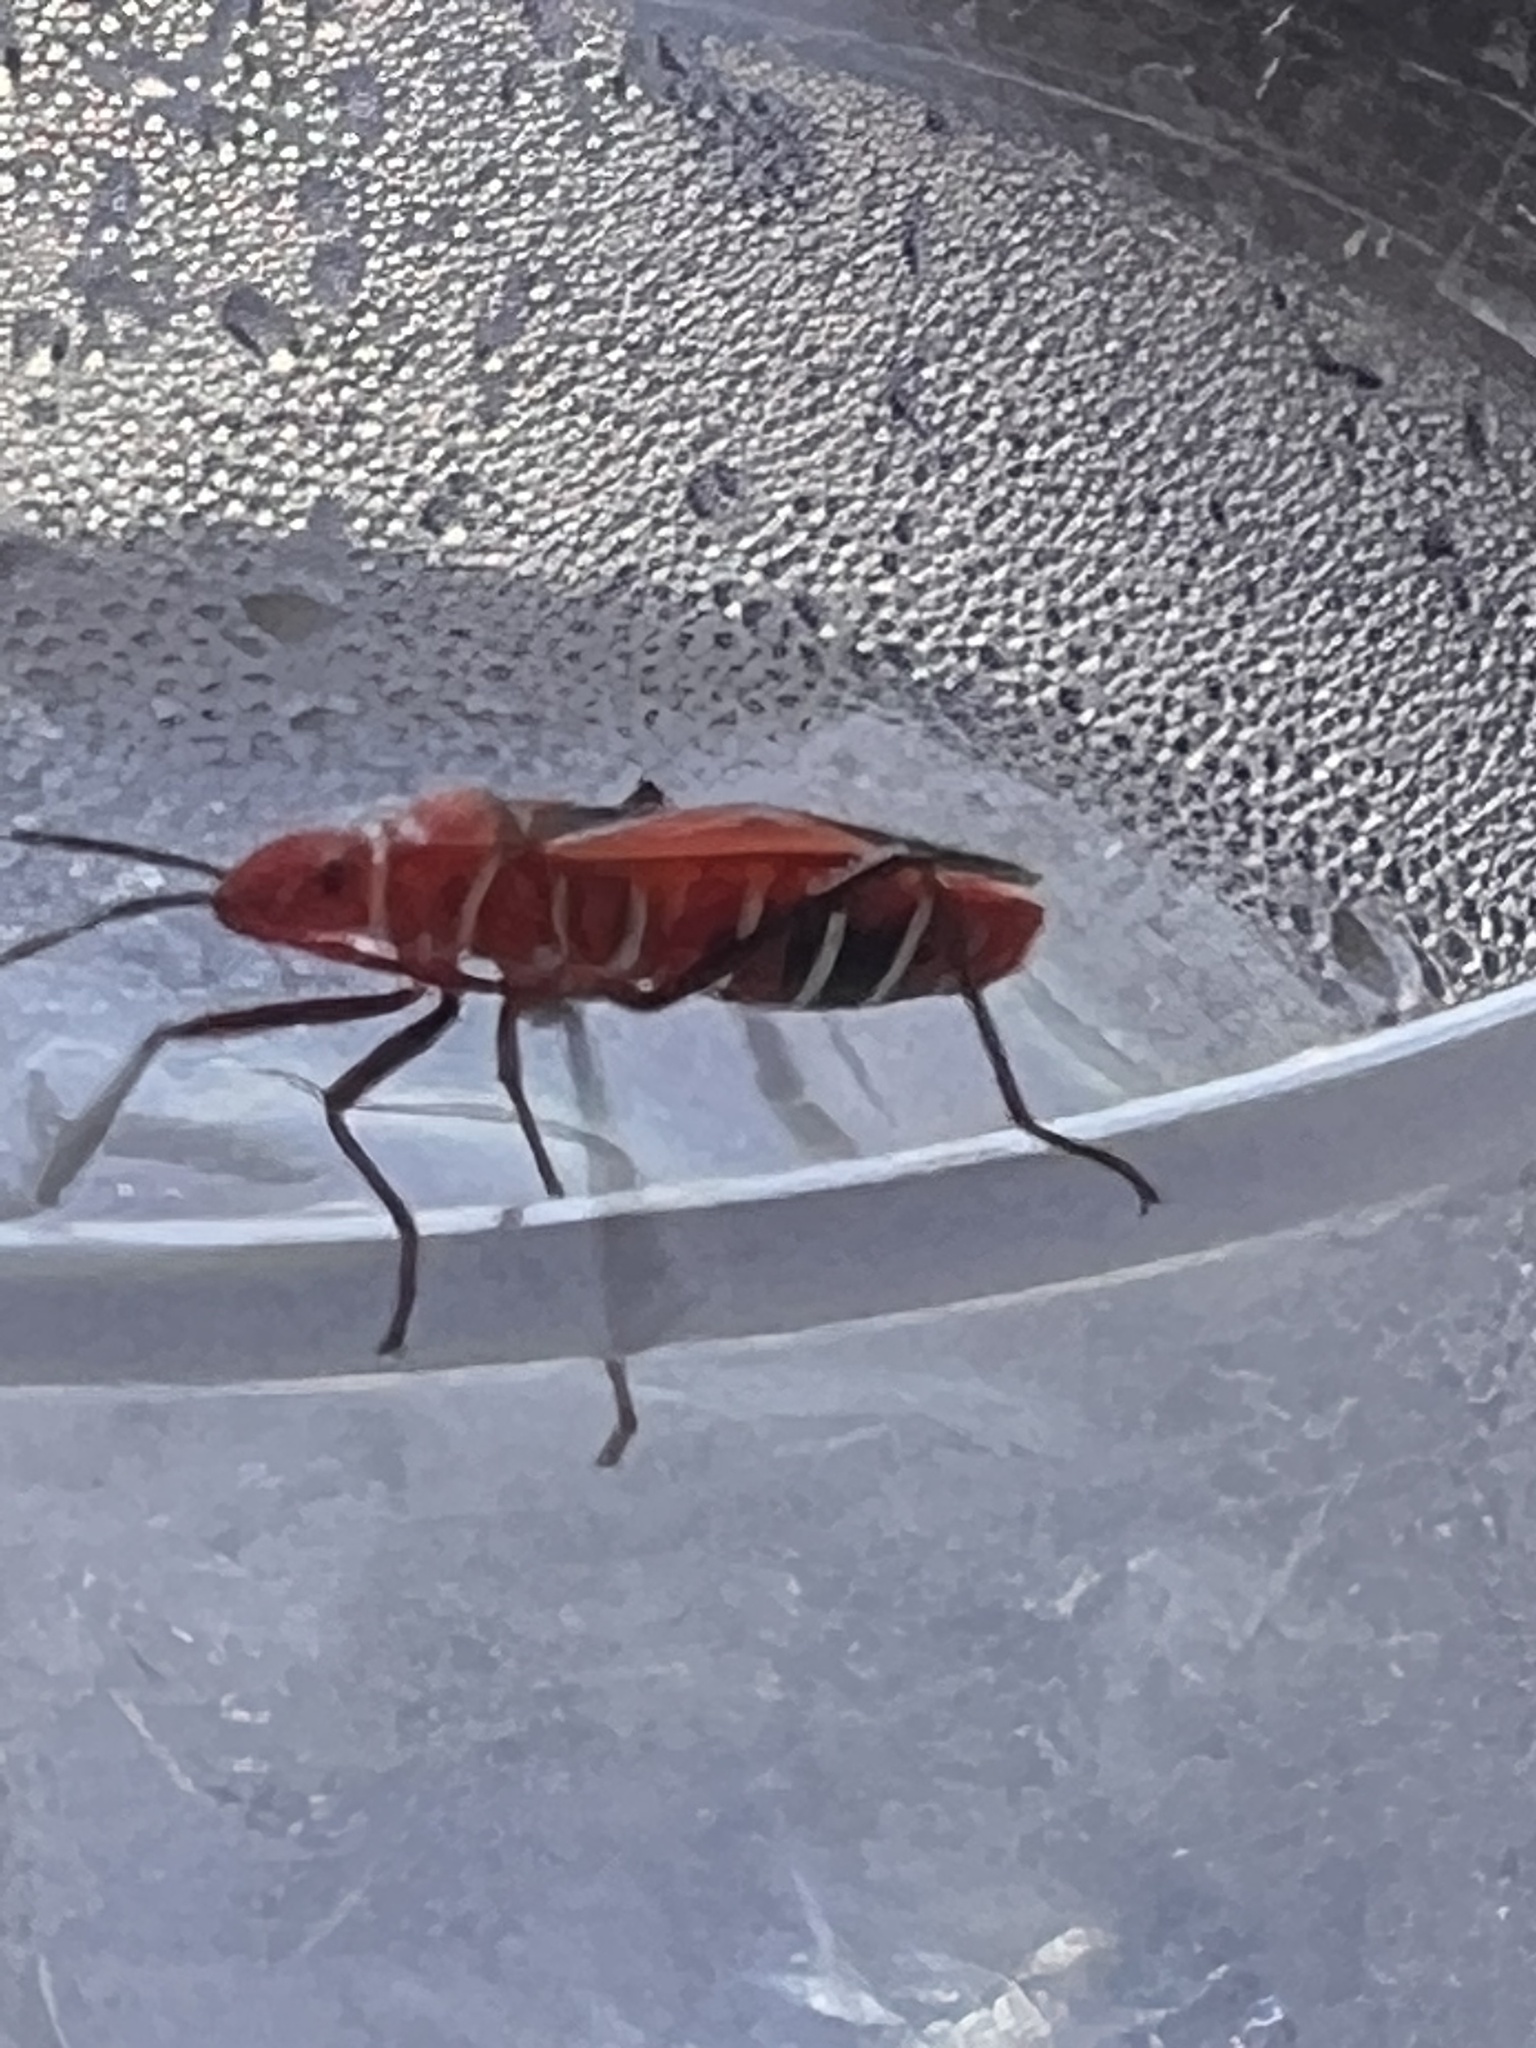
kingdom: Animalia
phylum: Arthropoda
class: Insecta
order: Hemiptera
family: Pyrrhocoridae
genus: Dysdercus
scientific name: Dysdercus andreae
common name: St. andrew's cotton stainer
